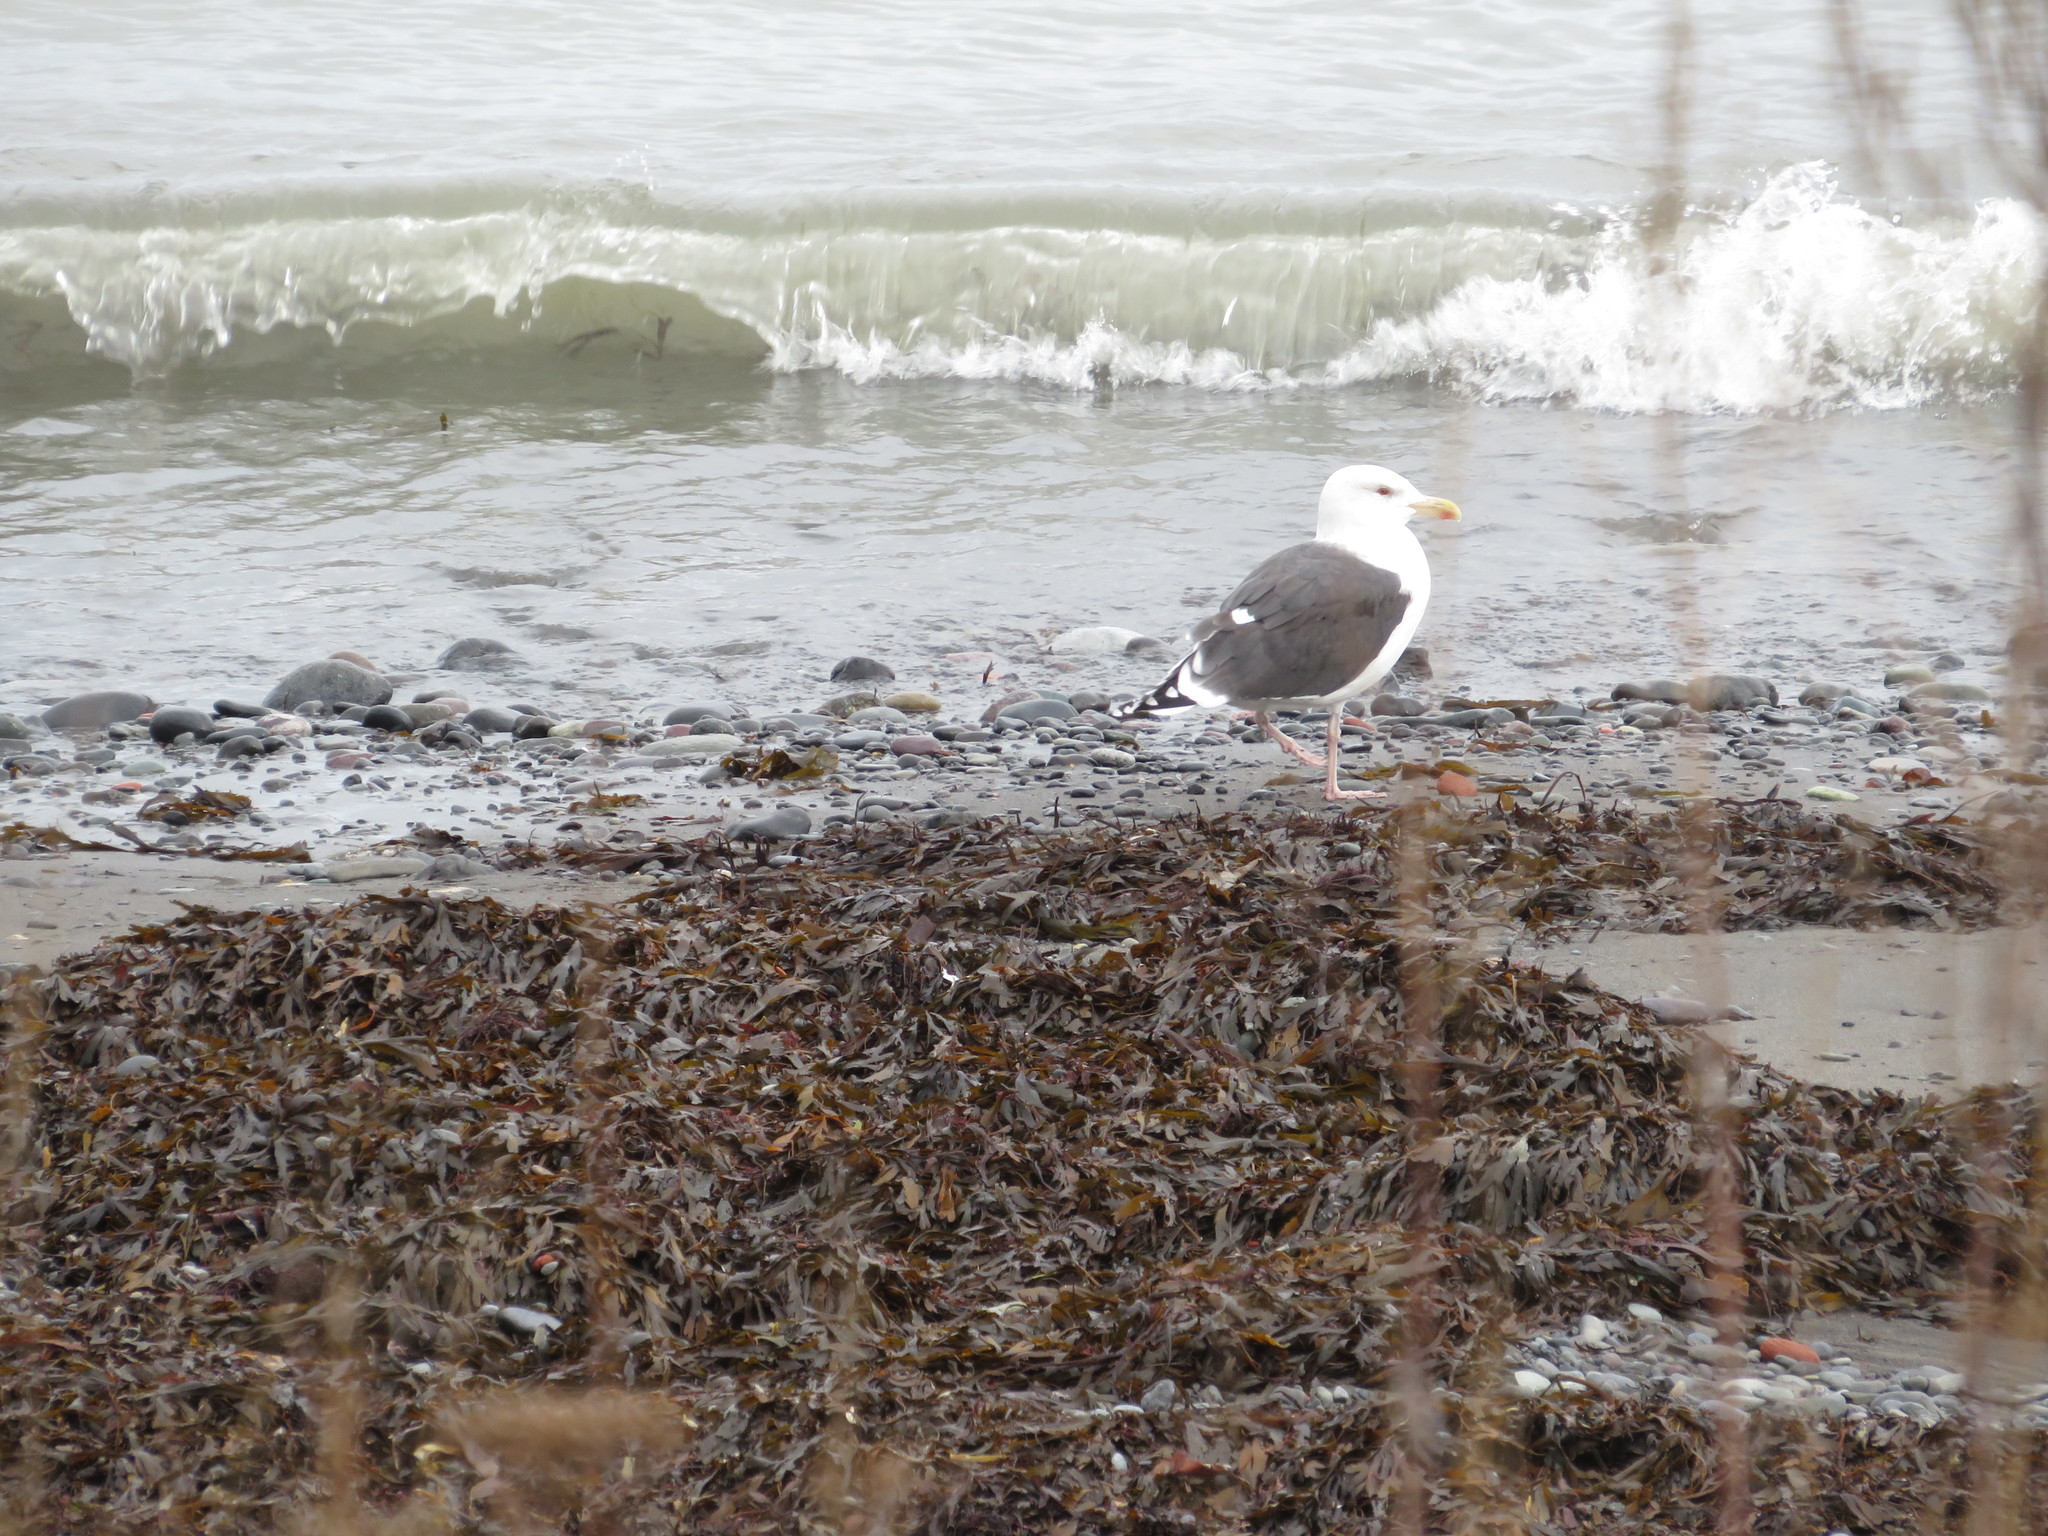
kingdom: Animalia
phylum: Chordata
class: Aves
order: Charadriiformes
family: Laridae
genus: Larus
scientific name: Larus marinus
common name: Great black-backed gull
